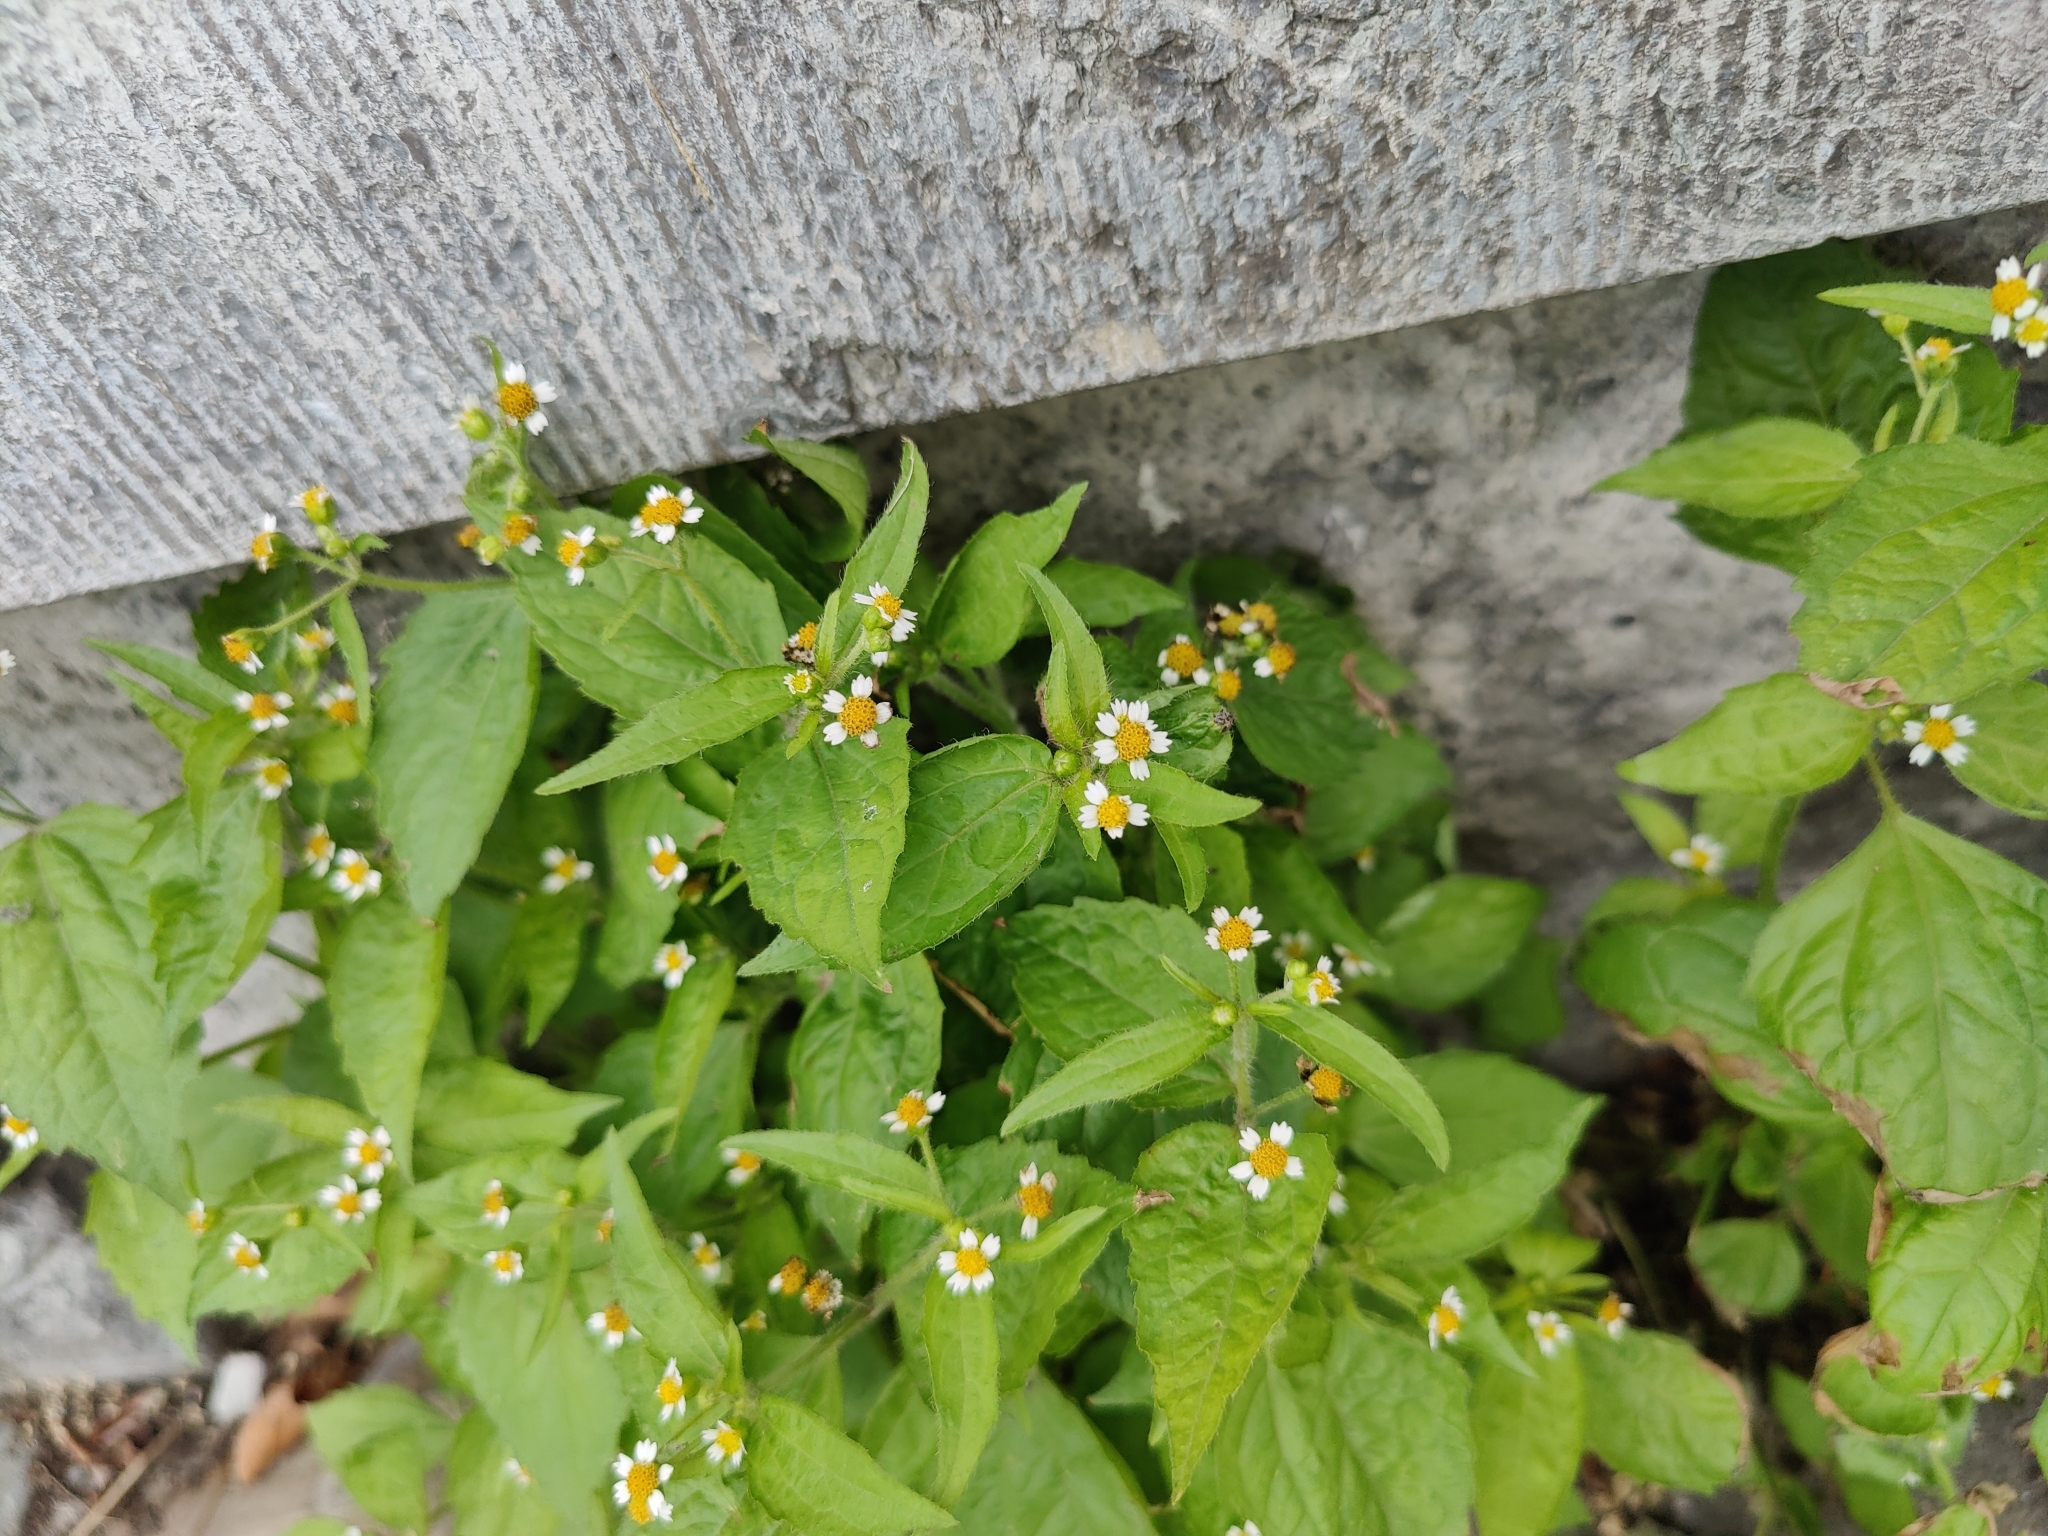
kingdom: Plantae
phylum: Tracheophyta
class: Magnoliopsida
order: Asterales
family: Asteraceae
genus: Galinsoga
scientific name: Galinsoga quadriradiata
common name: Shaggy soldier
